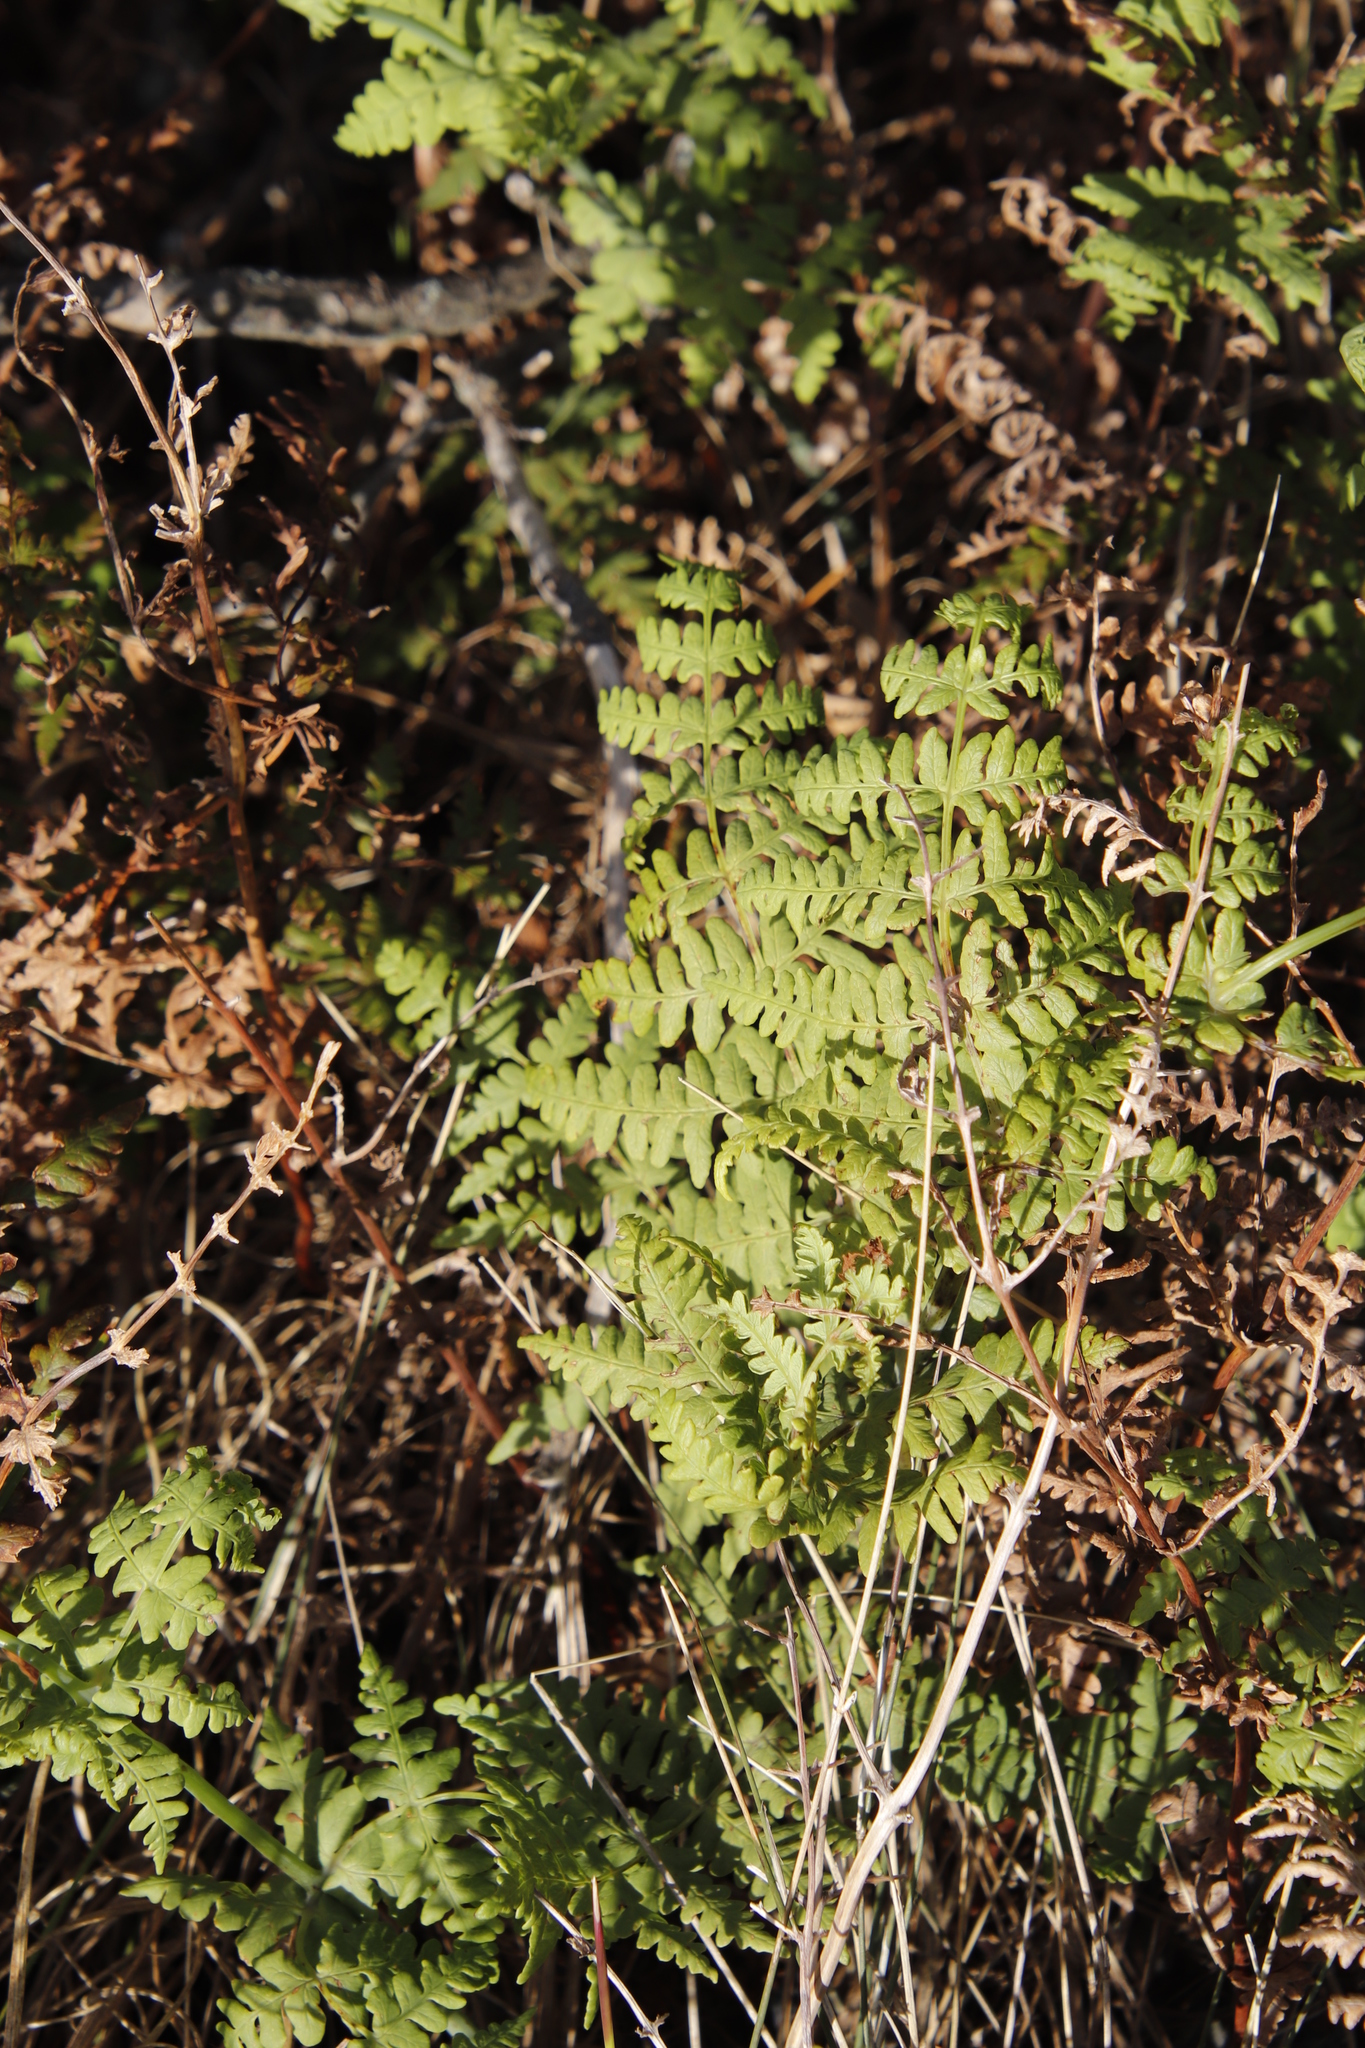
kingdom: Plantae
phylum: Tracheophyta
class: Polypodiopsida
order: Polypodiales
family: Dennstaedtiaceae
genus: Histiopteris
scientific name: Histiopteris incisa
